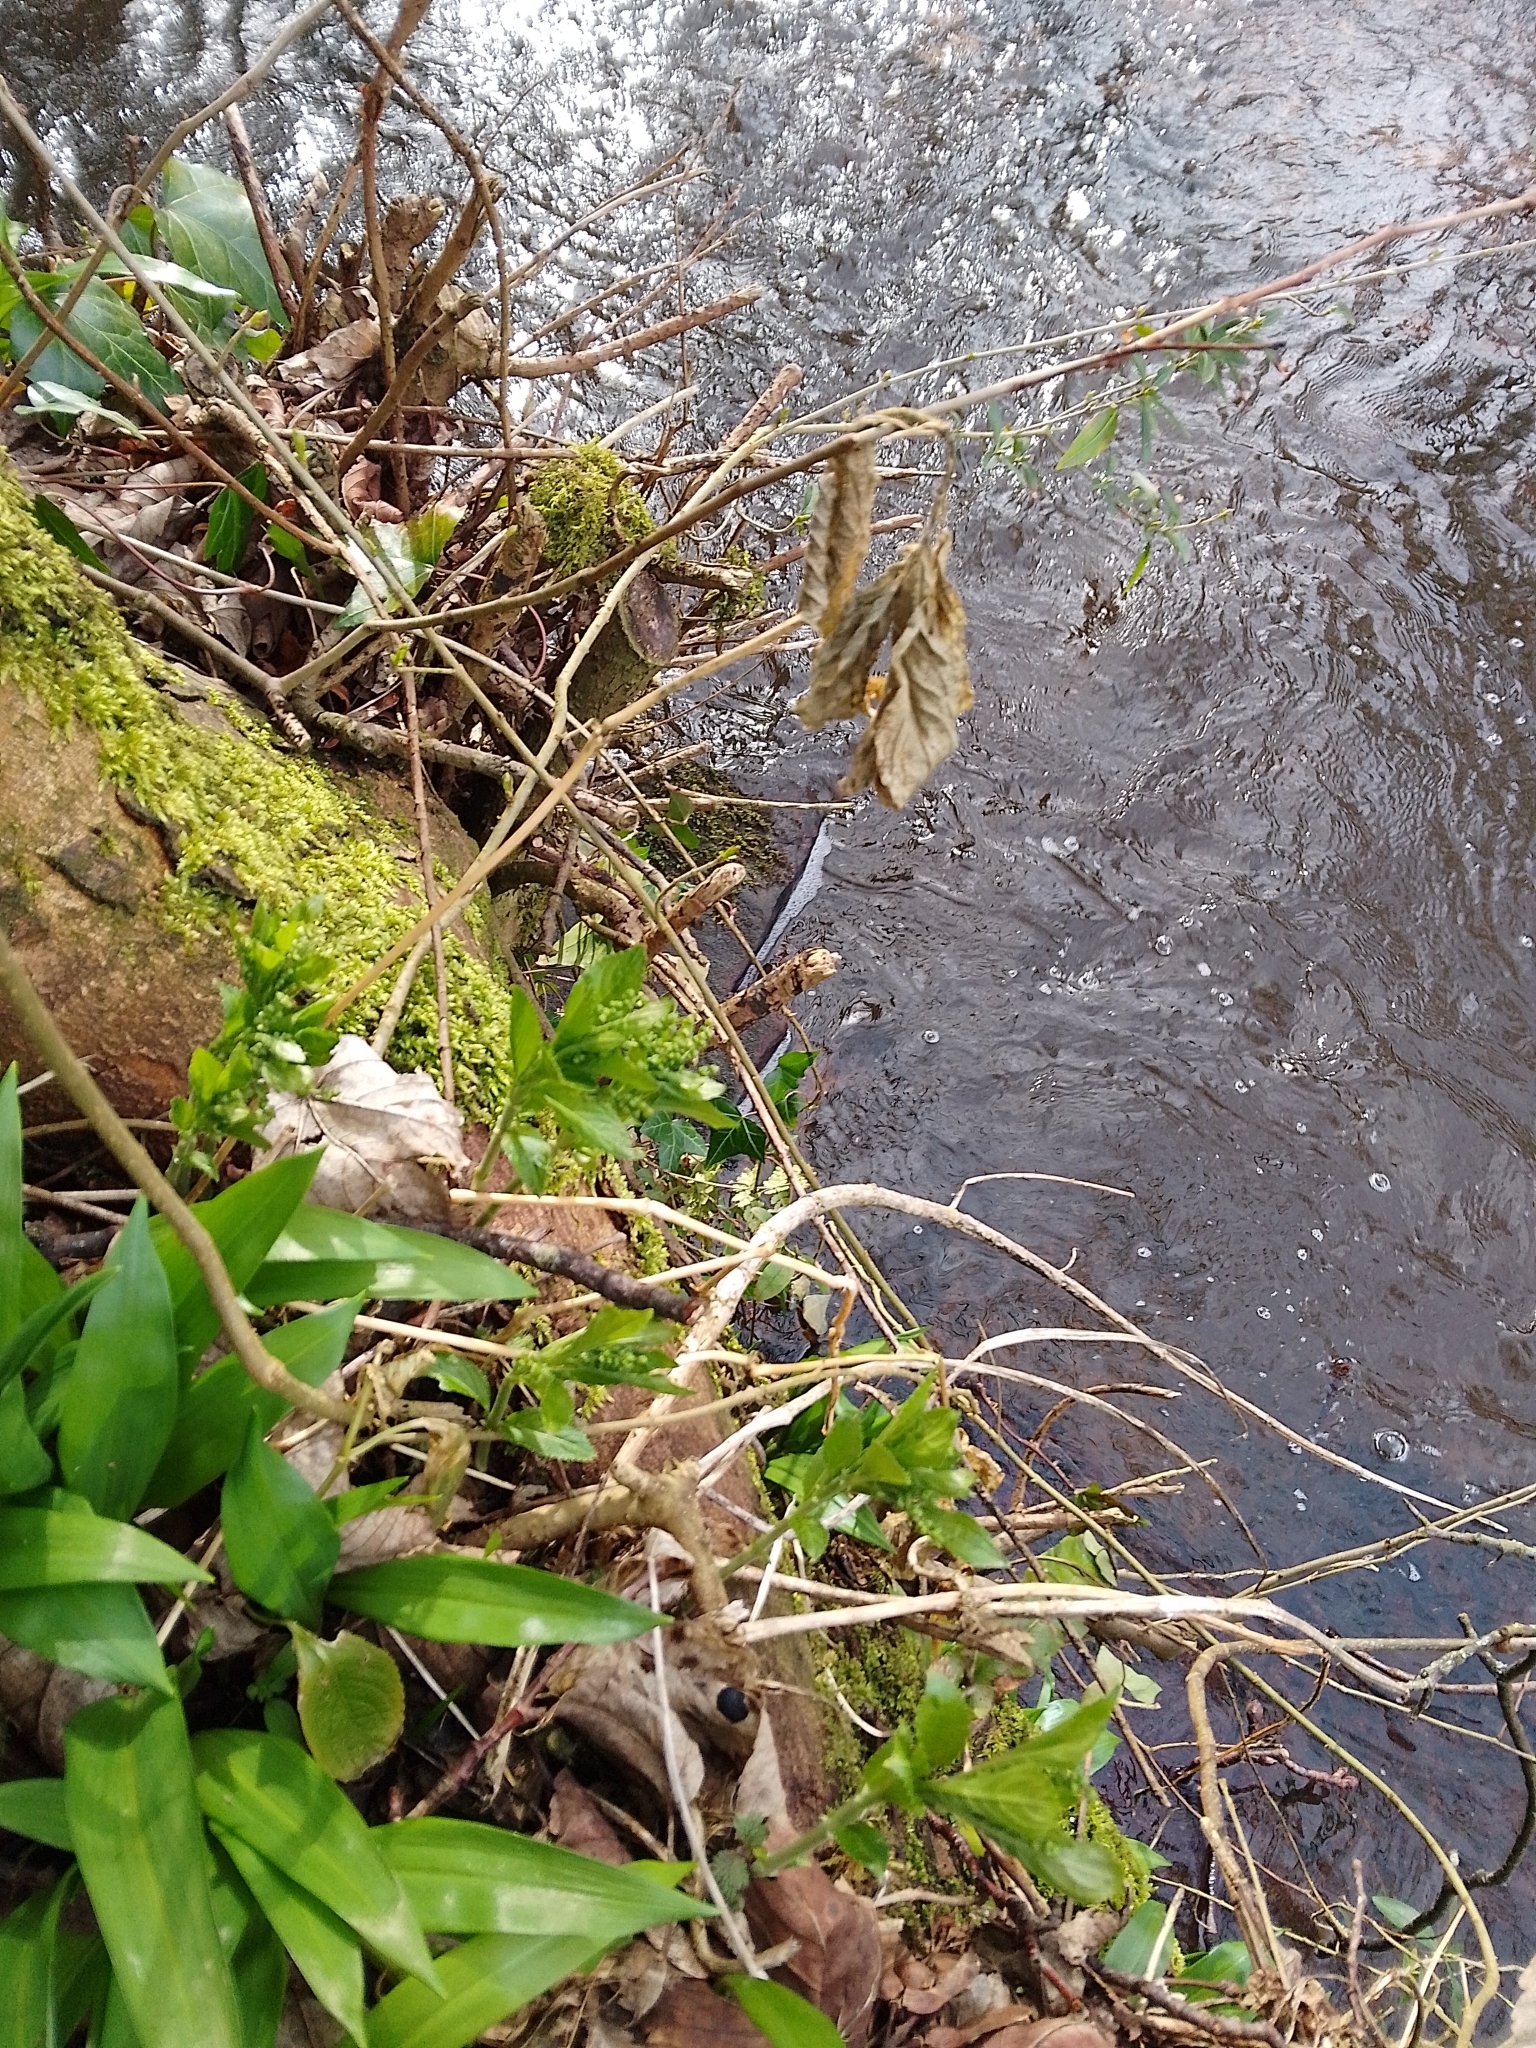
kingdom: Plantae
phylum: Tracheophyta
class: Magnoliopsida
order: Malpighiales
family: Euphorbiaceae
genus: Mercurialis
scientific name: Mercurialis perennis
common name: Dog mercury
